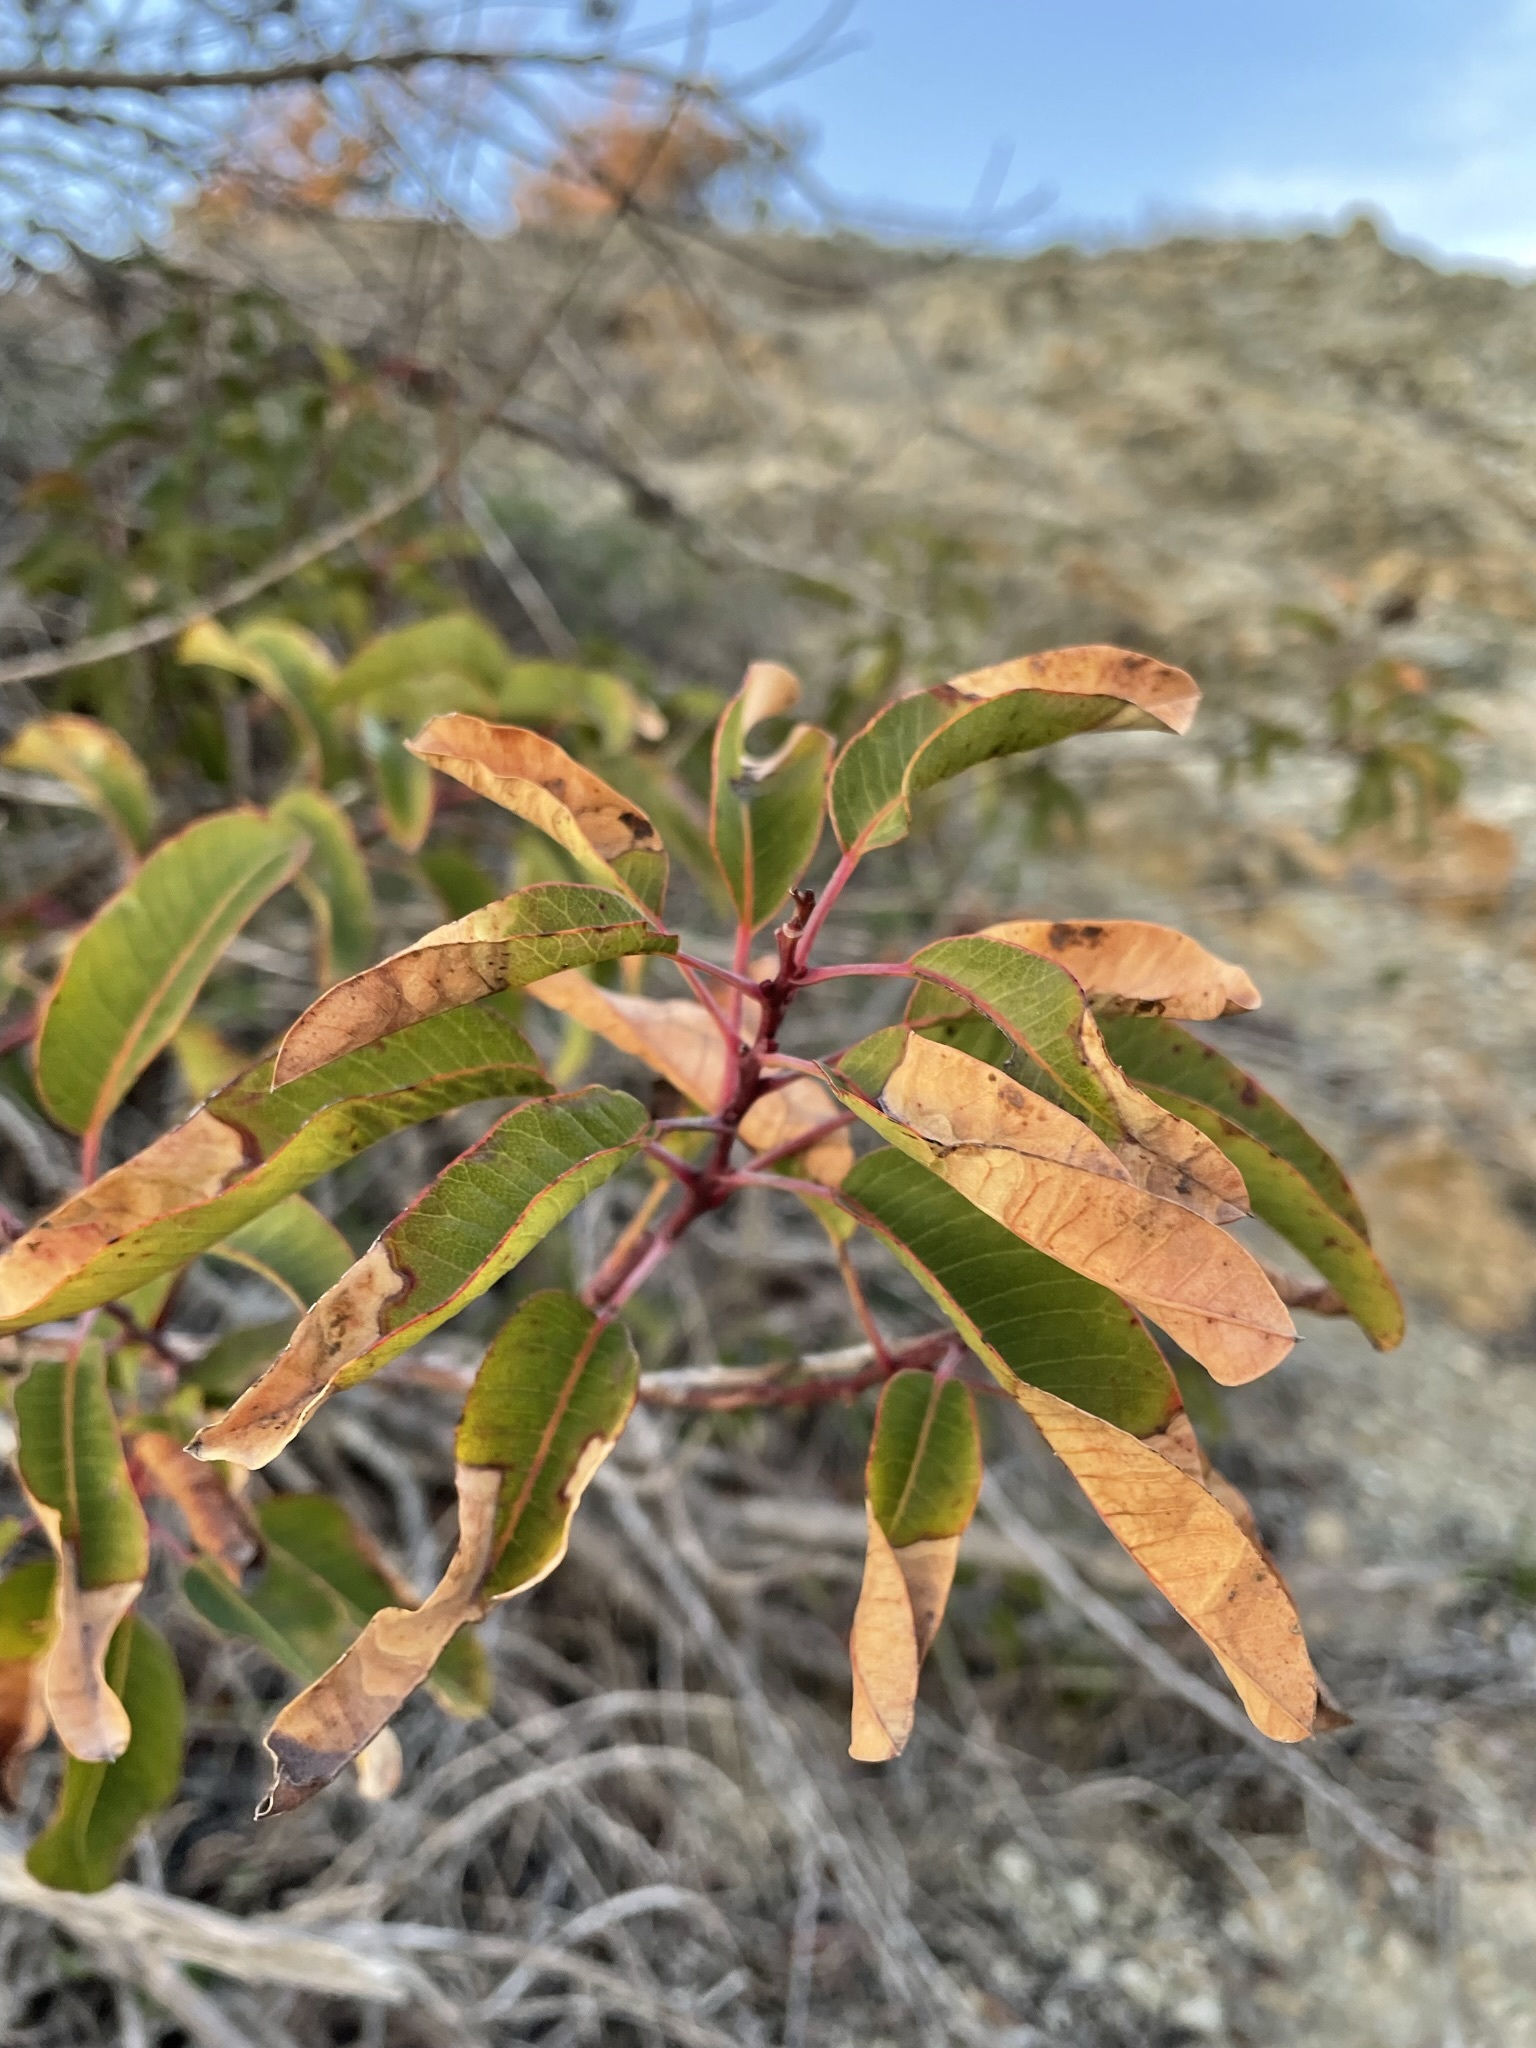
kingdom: Plantae
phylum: Tracheophyta
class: Magnoliopsida
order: Sapindales
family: Anacardiaceae
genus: Malosma
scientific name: Malosma laurina
